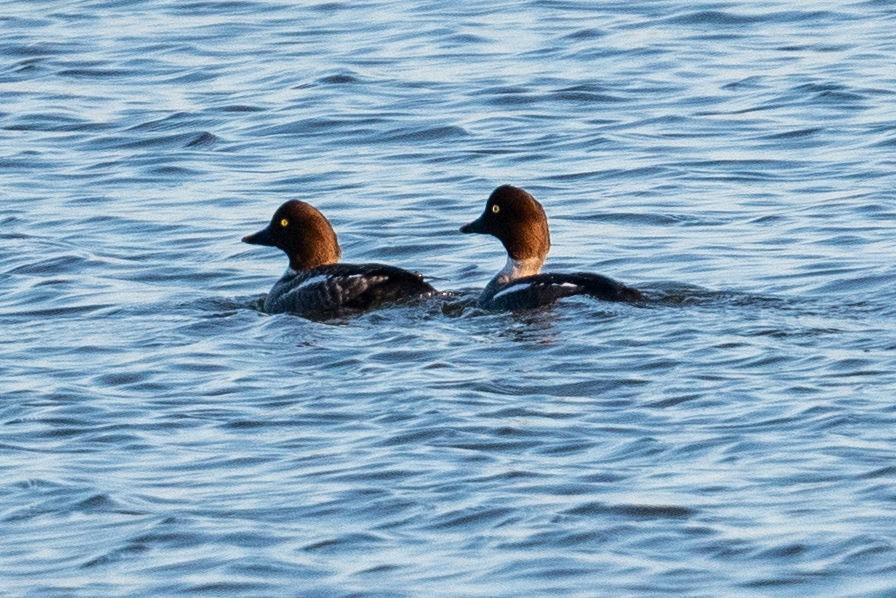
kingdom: Animalia
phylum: Chordata
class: Aves
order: Anseriformes
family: Anatidae
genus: Bucephala
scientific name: Bucephala clangula
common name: Common goldeneye
